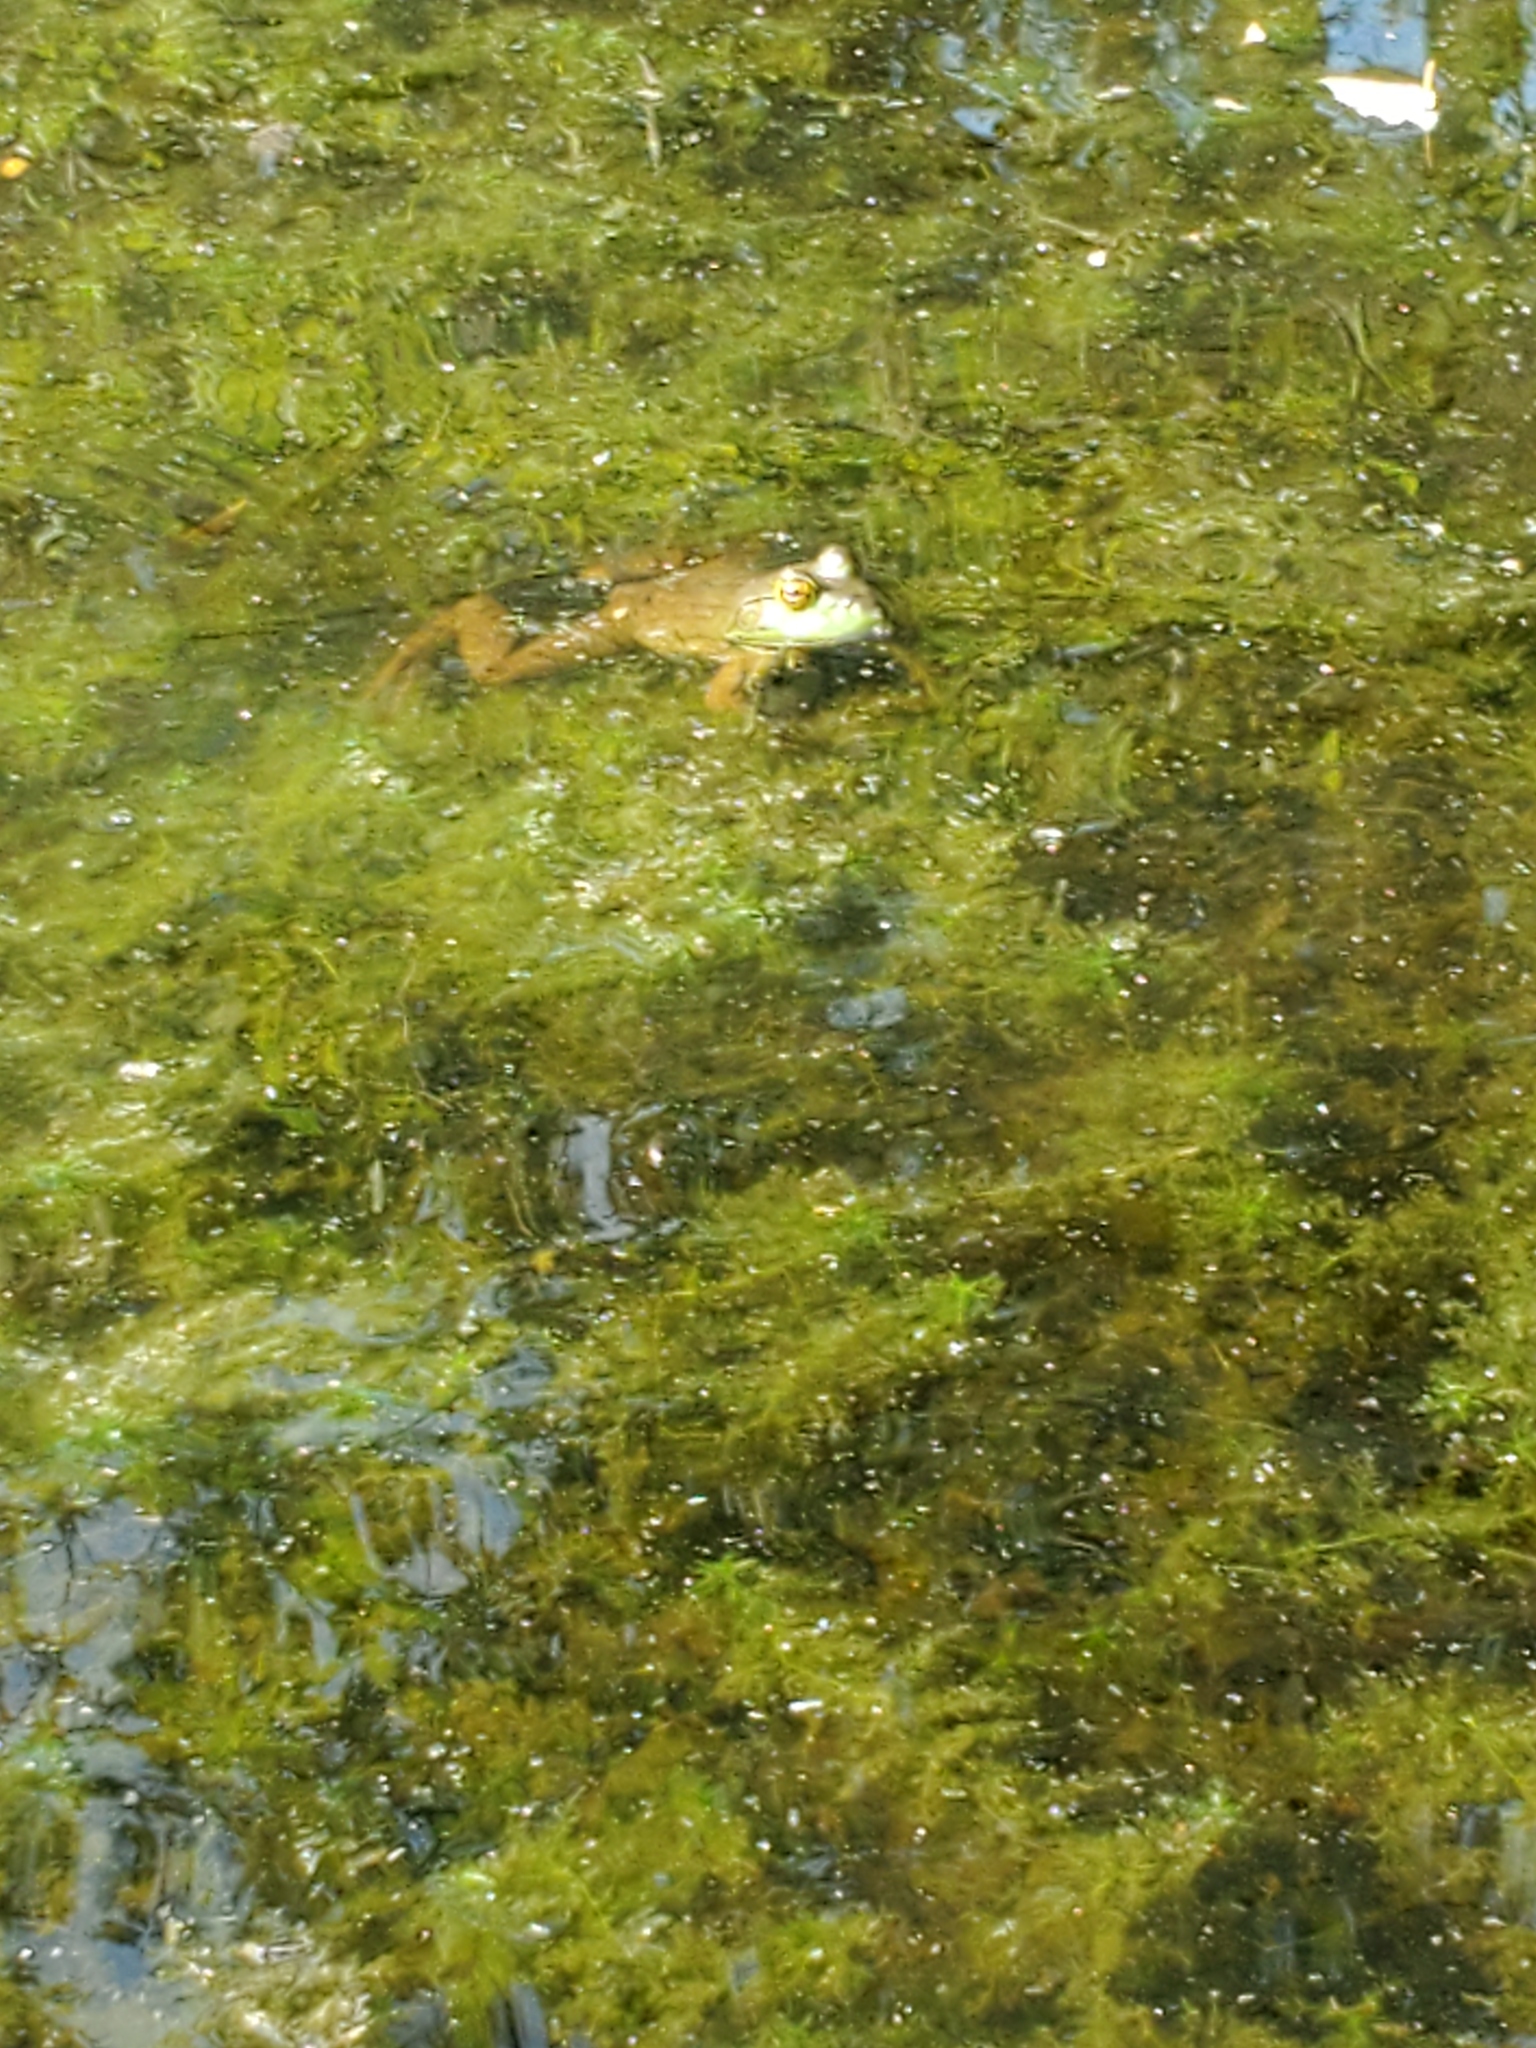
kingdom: Animalia
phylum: Chordata
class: Amphibia
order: Anura
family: Ranidae
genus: Lithobates
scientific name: Lithobates catesbeianus
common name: American bullfrog
